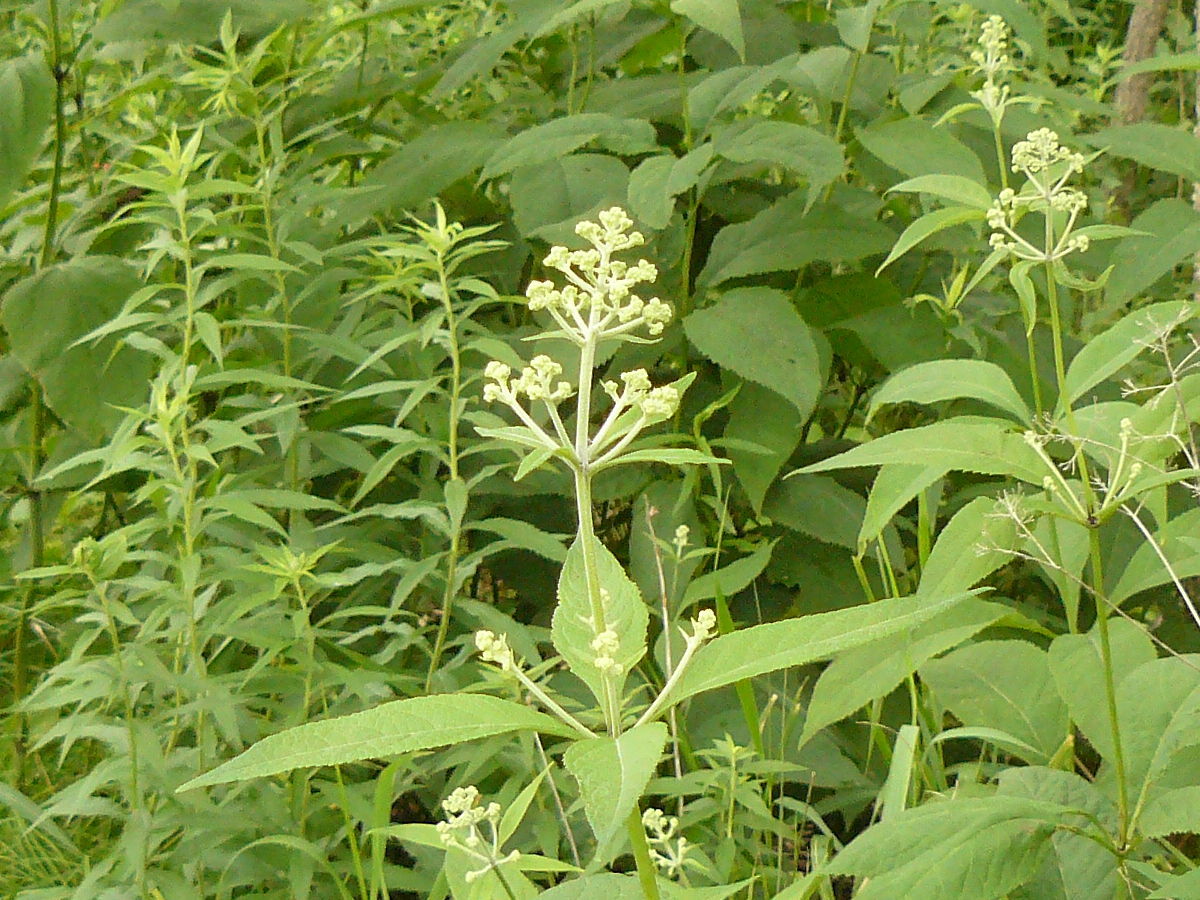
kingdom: Plantae
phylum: Tracheophyta
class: Magnoliopsida
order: Asterales
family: Asteraceae
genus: Eutrochium
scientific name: Eutrochium purpureum
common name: Gravelroot
